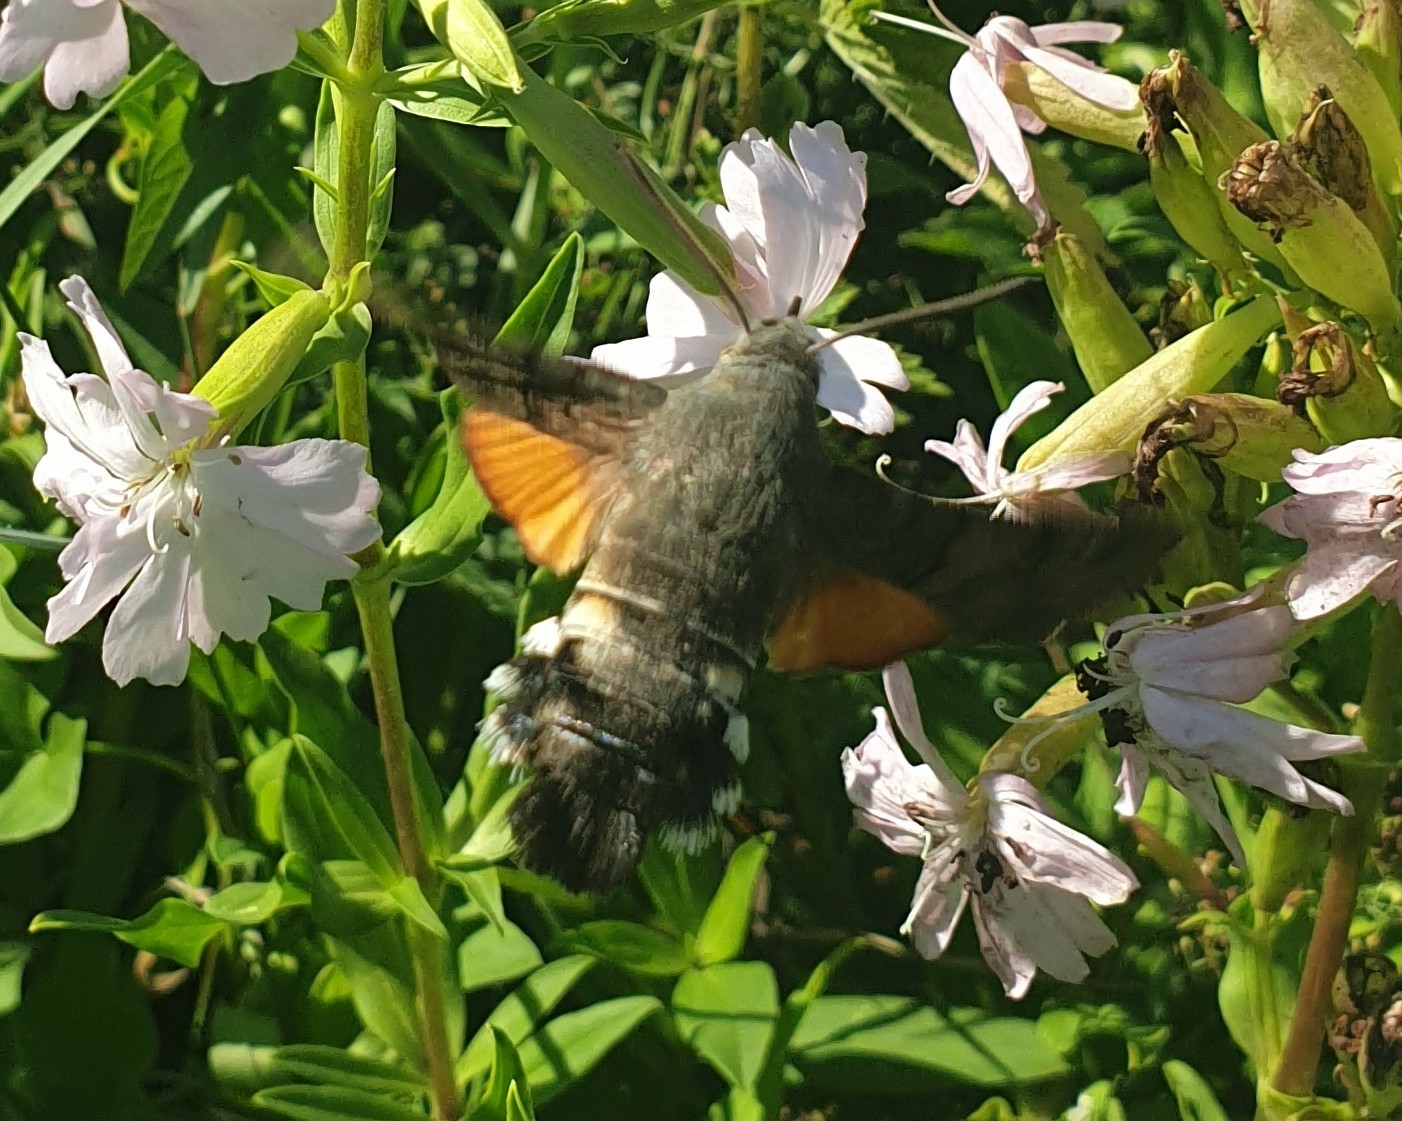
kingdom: Animalia
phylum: Arthropoda
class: Insecta
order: Lepidoptera
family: Sphingidae
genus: Macroglossum
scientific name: Macroglossum stellatarum
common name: Humming-bird hawk-moth
